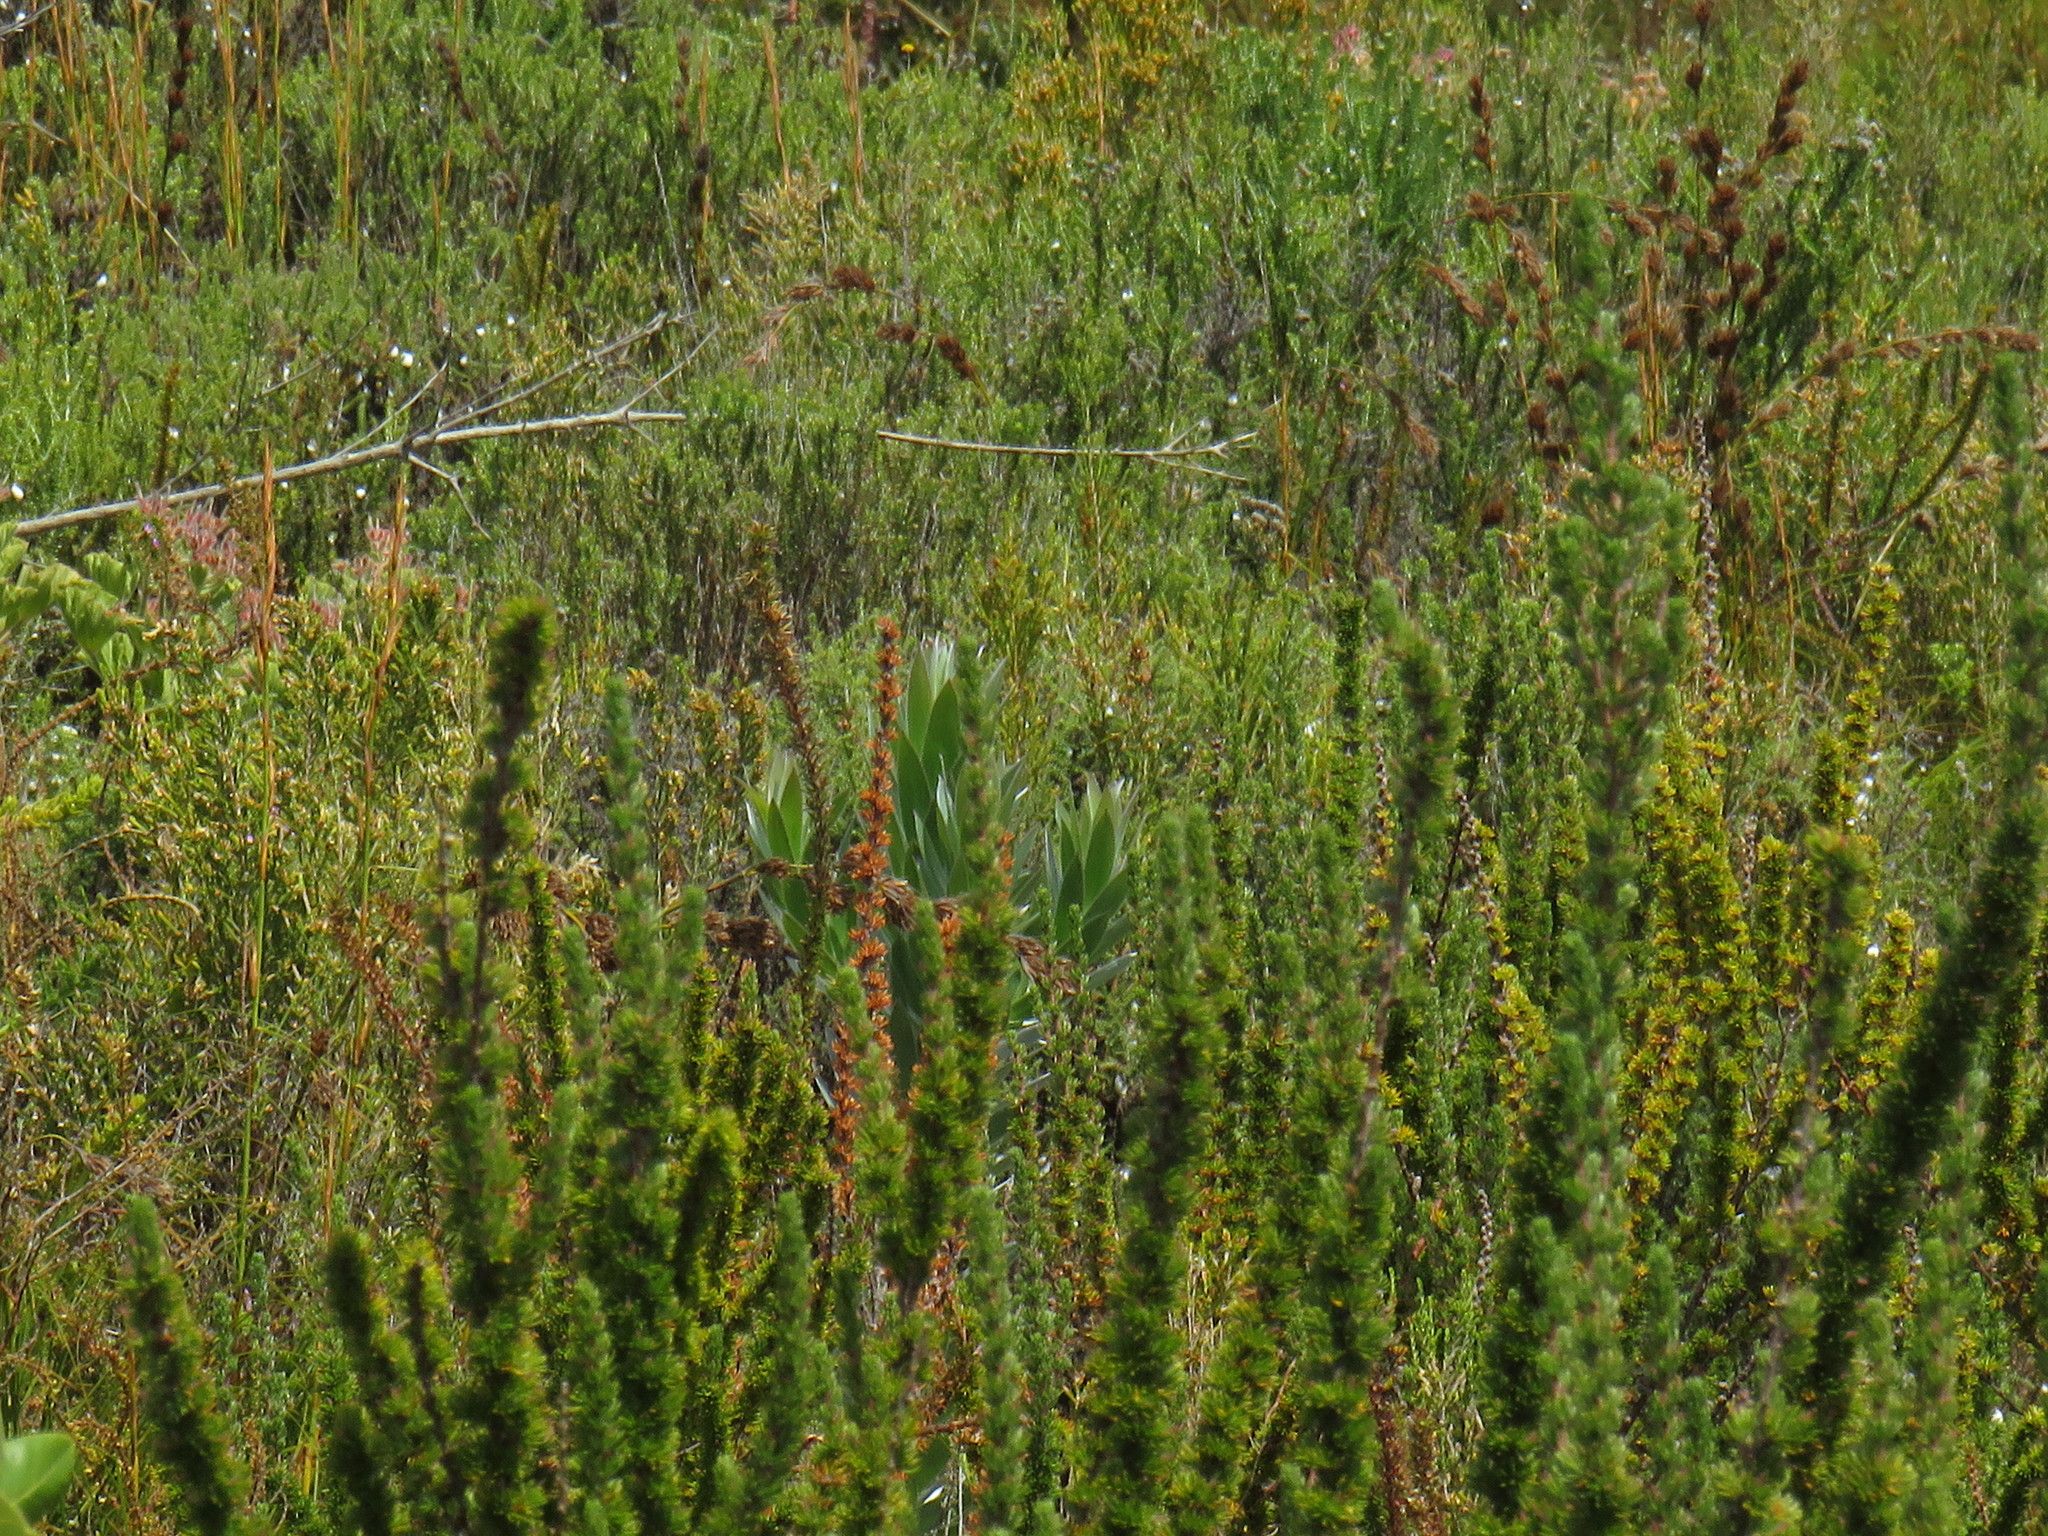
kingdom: Plantae
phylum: Tracheophyta
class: Magnoliopsida
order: Proteales
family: Proteaceae
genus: Leucadendron
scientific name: Leucadendron argenteum
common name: Cape silver tree
